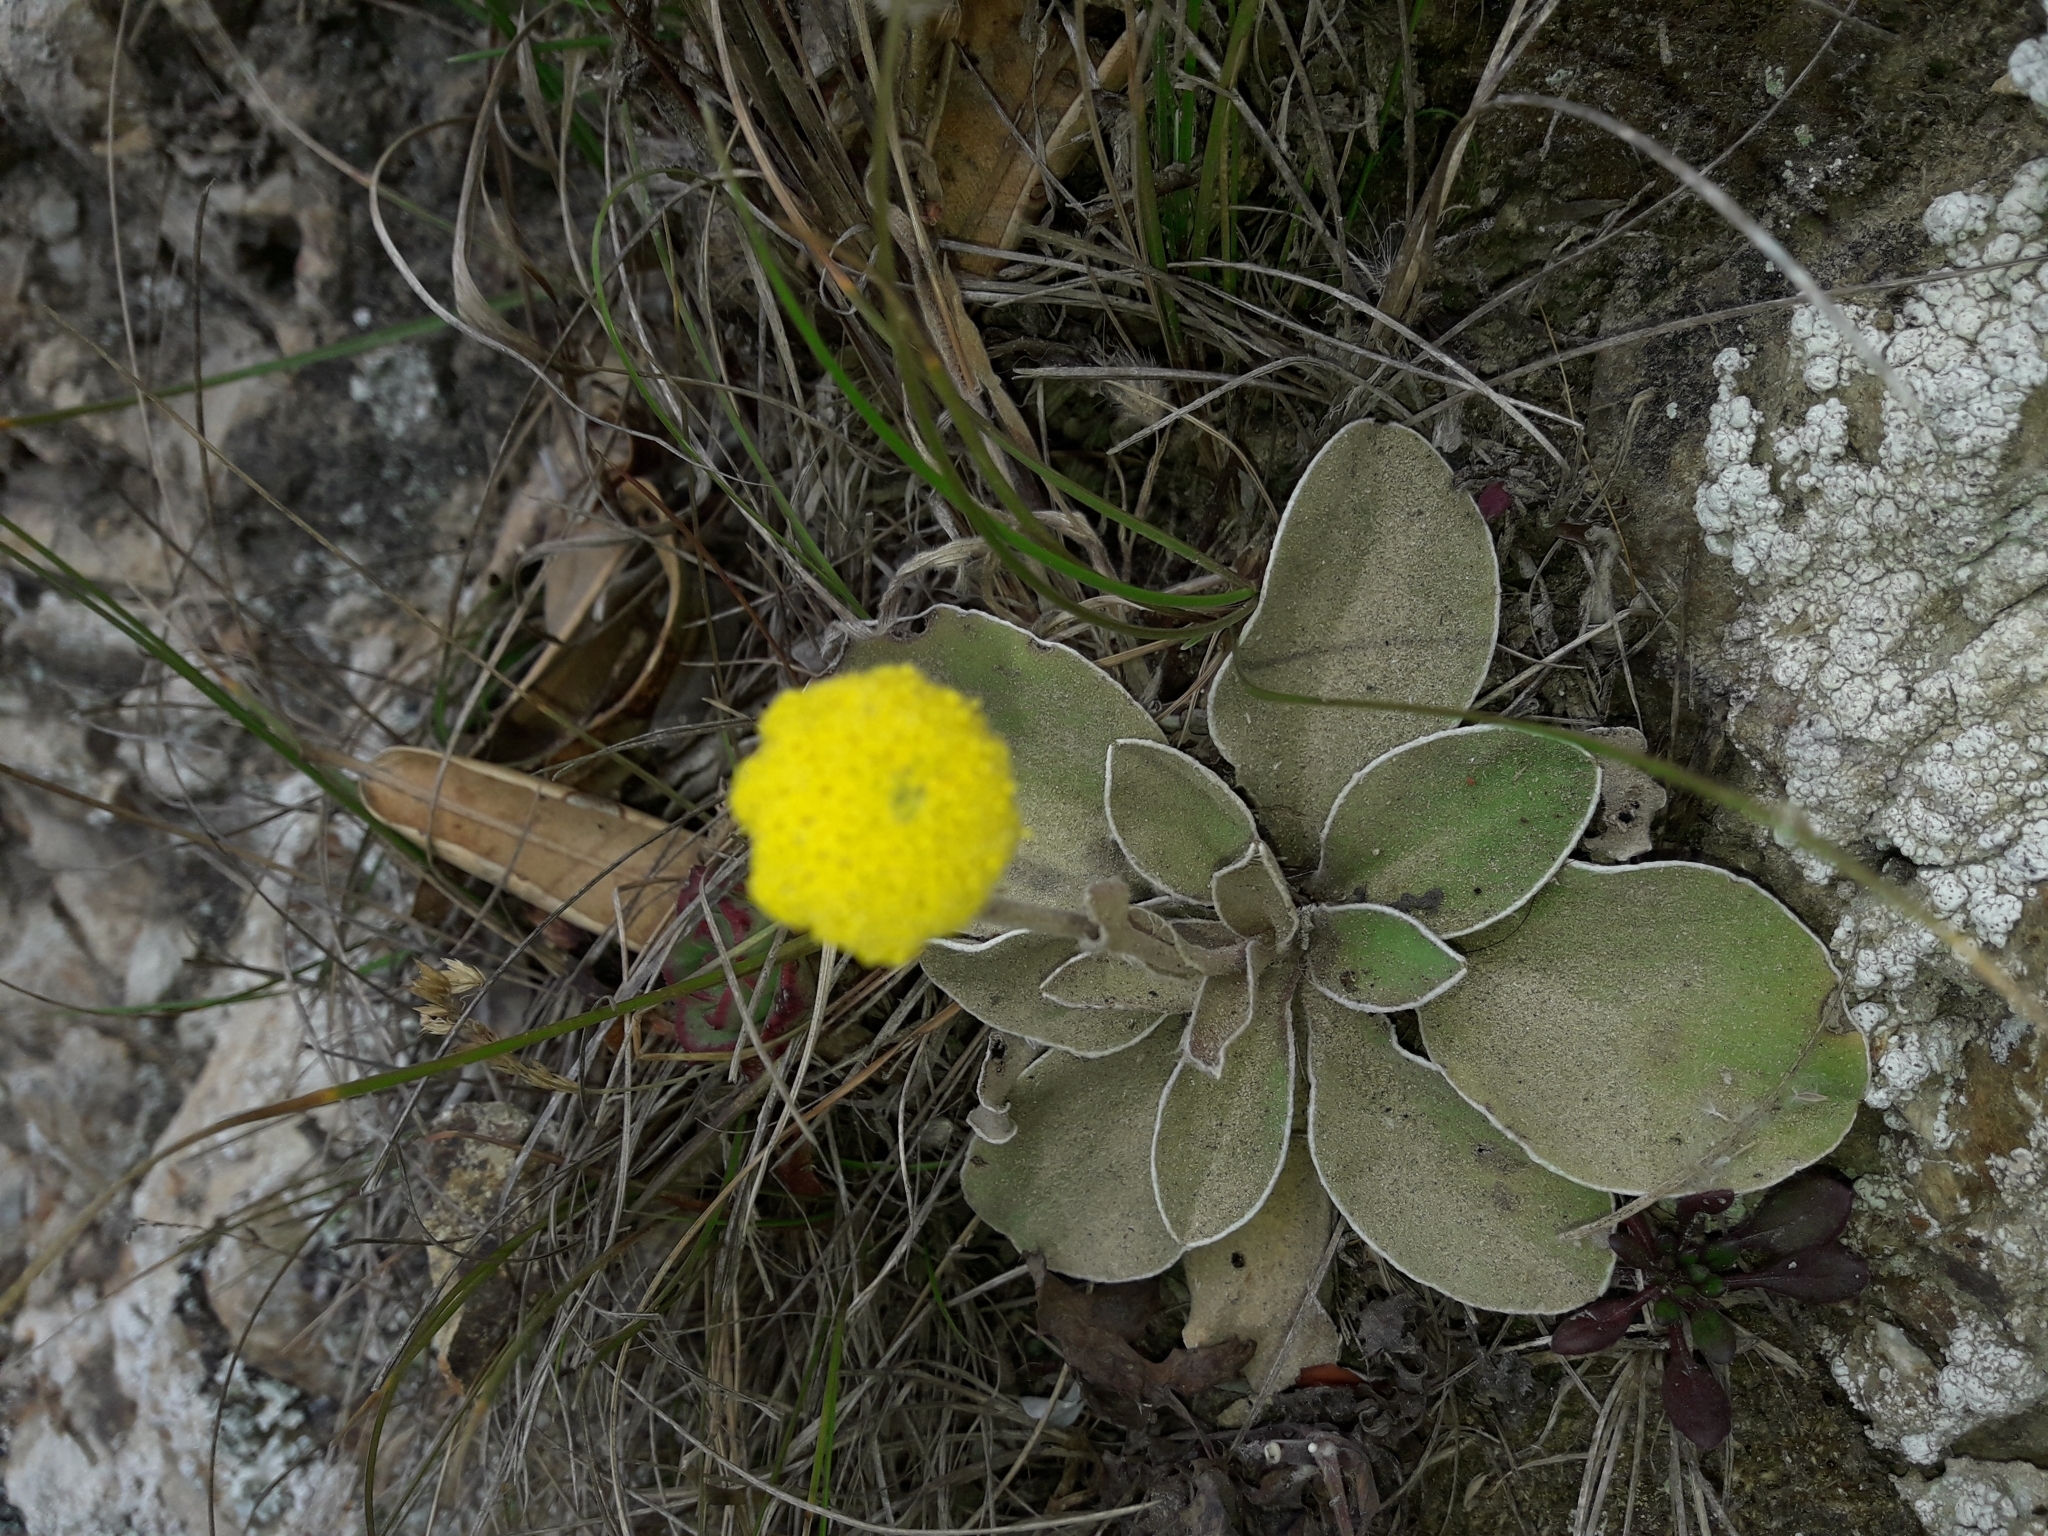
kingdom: Plantae
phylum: Tracheophyta
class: Magnoliopsida
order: Asterales
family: Asteraceae
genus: Craspedia
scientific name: Craspedia uniflora
